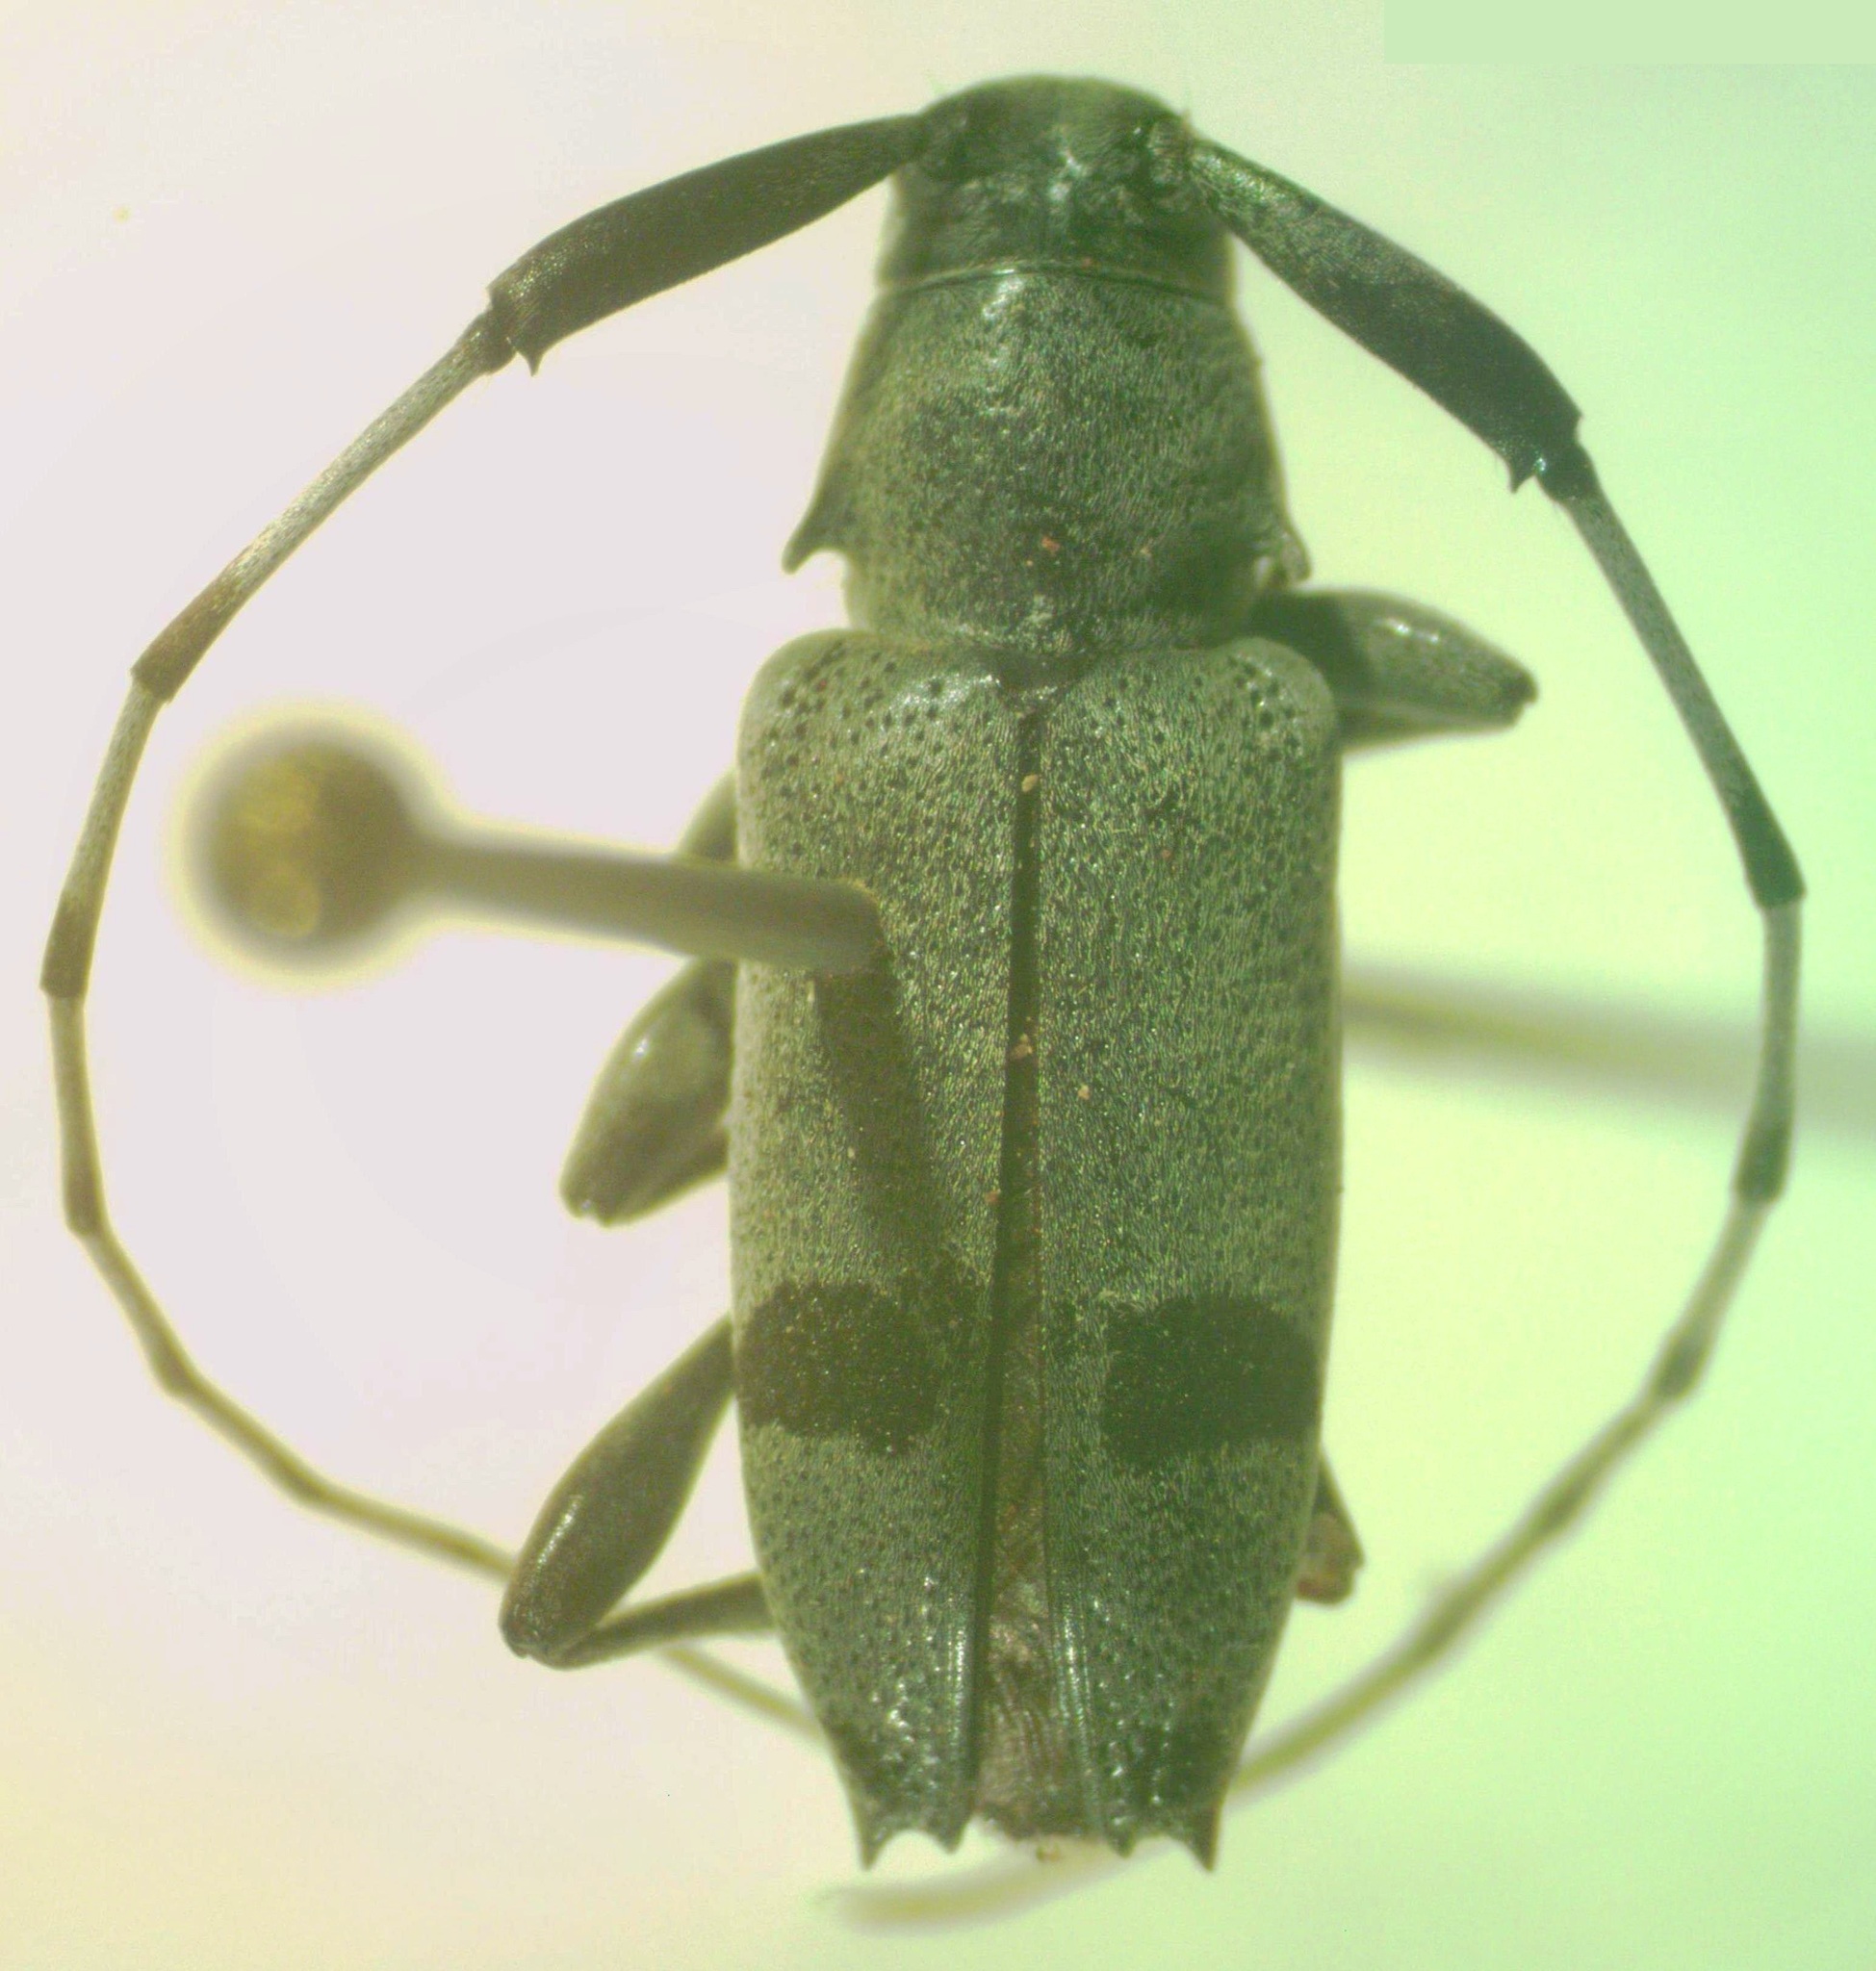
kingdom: Animalia
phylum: Arthropoda
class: Insecta
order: Coleoptera
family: Cerambycidae
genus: Canidia
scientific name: Canidia cincticornis
